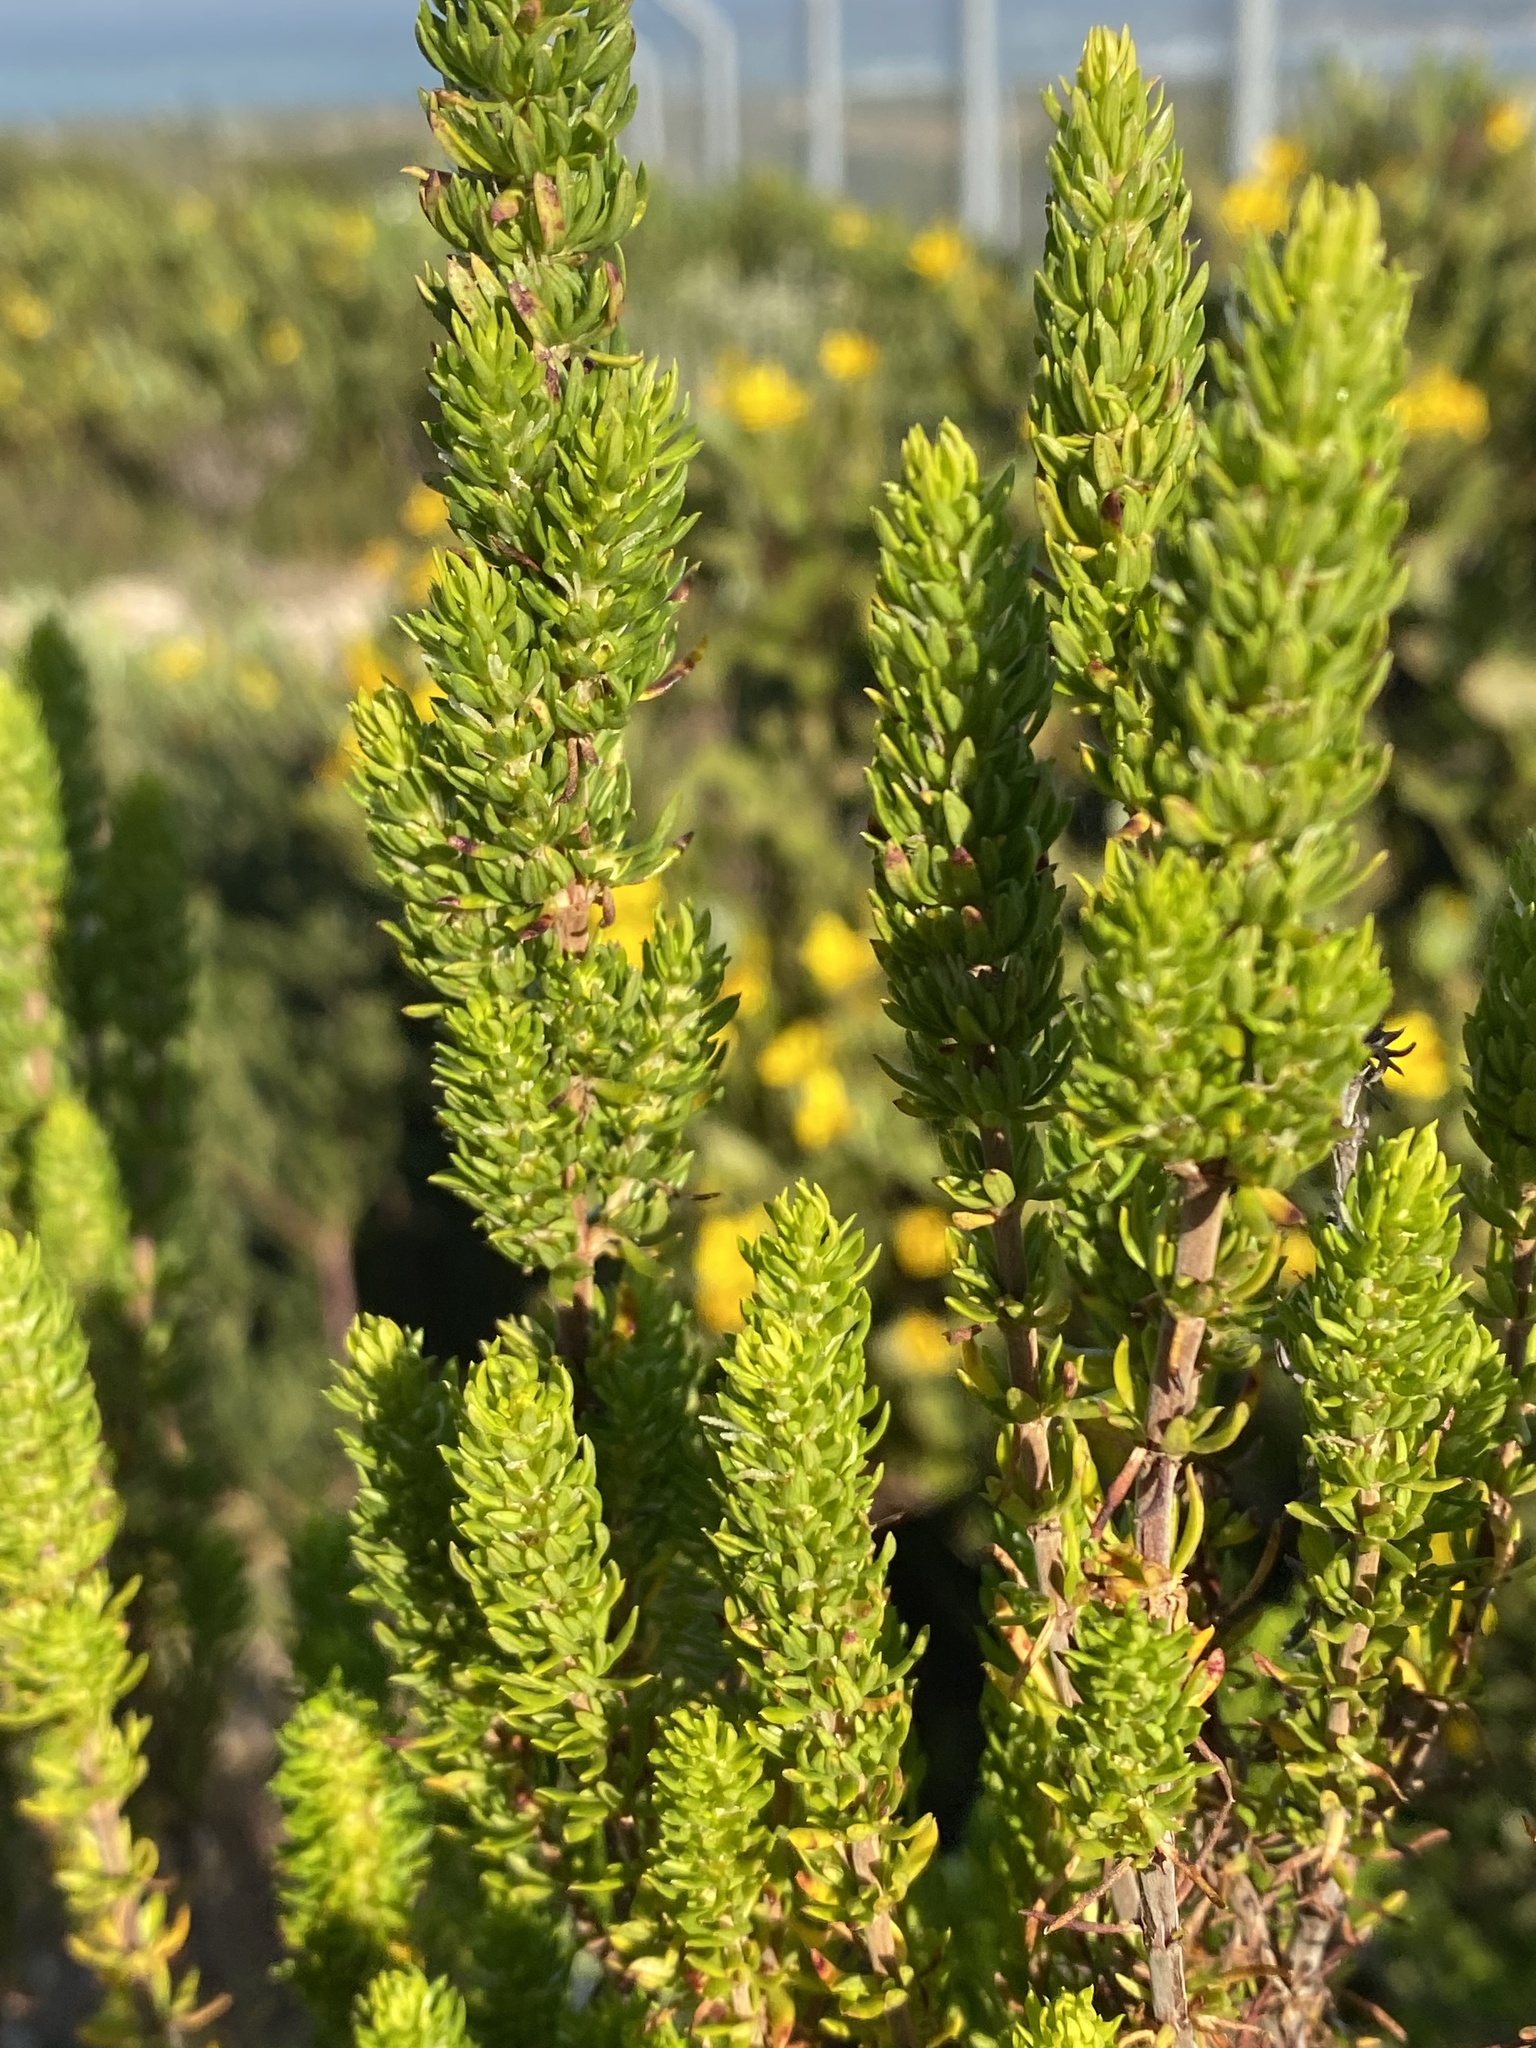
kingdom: Plantae
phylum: Tracheophyta
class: Magnoliopsida
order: Gentianales
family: Rubiaceae
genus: Anthospermum
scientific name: Anthospermum aethiopicum
